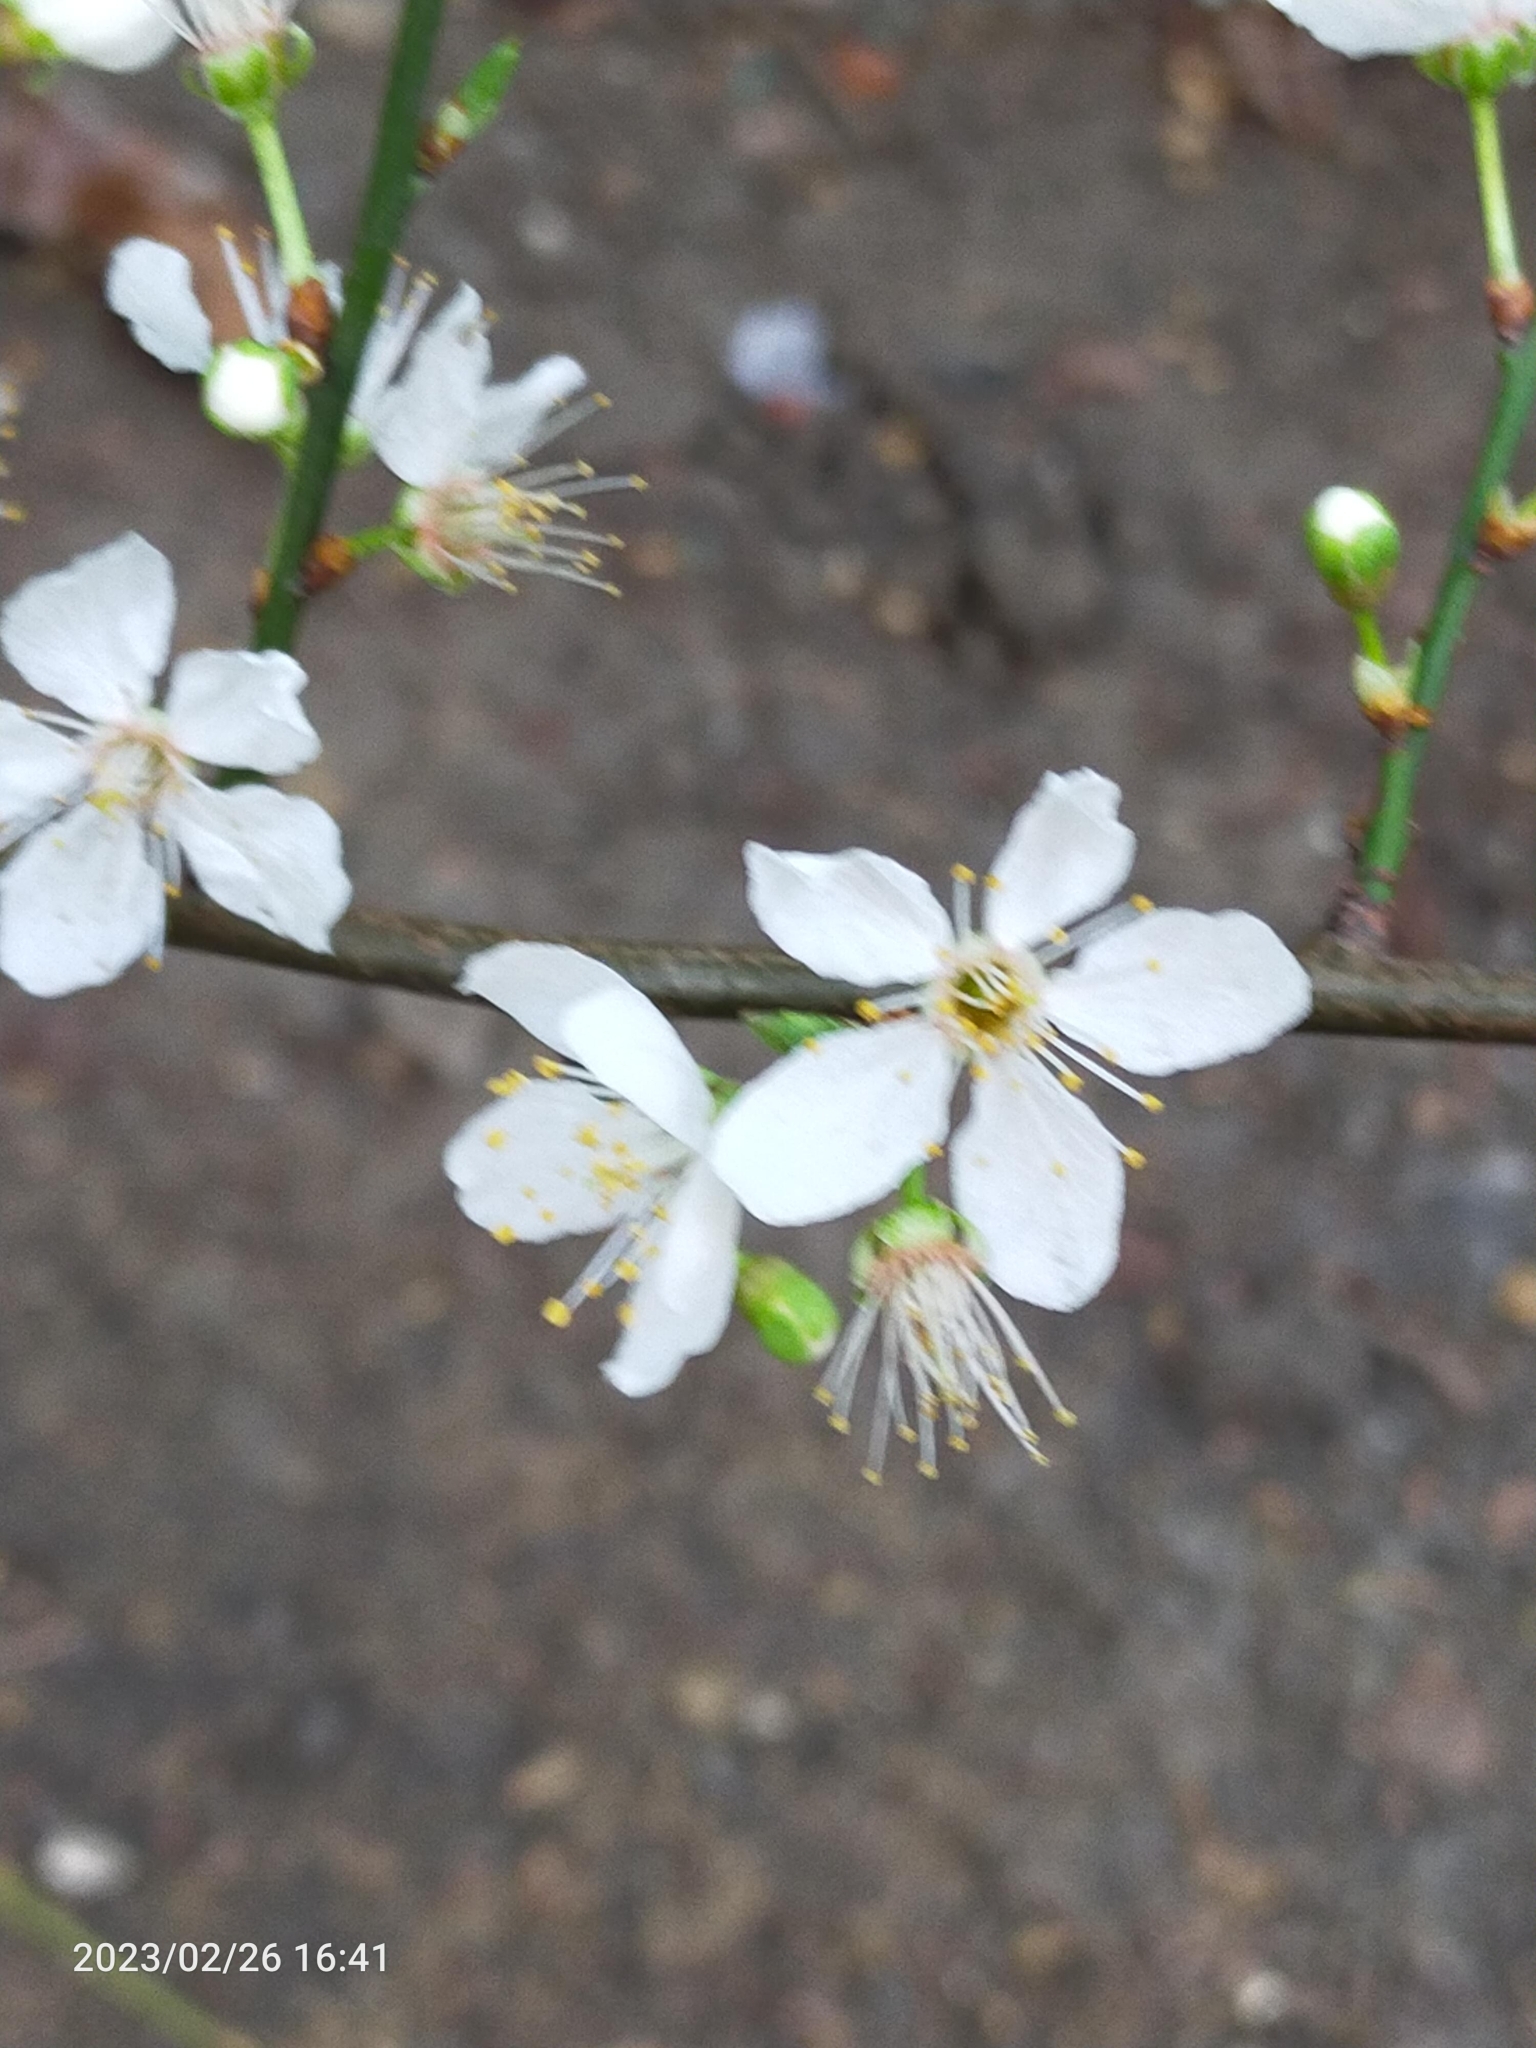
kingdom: Plantae
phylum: Tracheophyta
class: Magnoliopsida
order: Rosales
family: Rosaceae
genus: Prunus
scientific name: Prunus cerasifera
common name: Cherry plum
